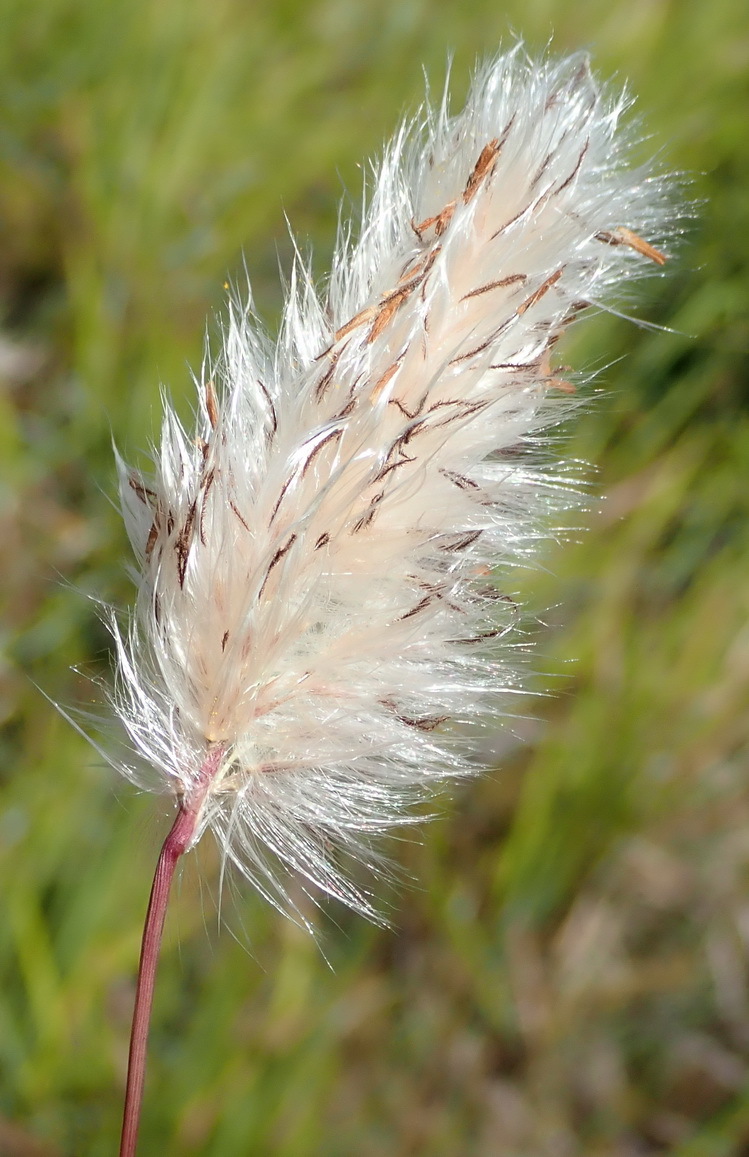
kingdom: Plantae
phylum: Tracheophyta
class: Liliopsida
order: Poales
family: Poaceae
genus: Imperata
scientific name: Imperata cylindrica
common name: Cogongrass
